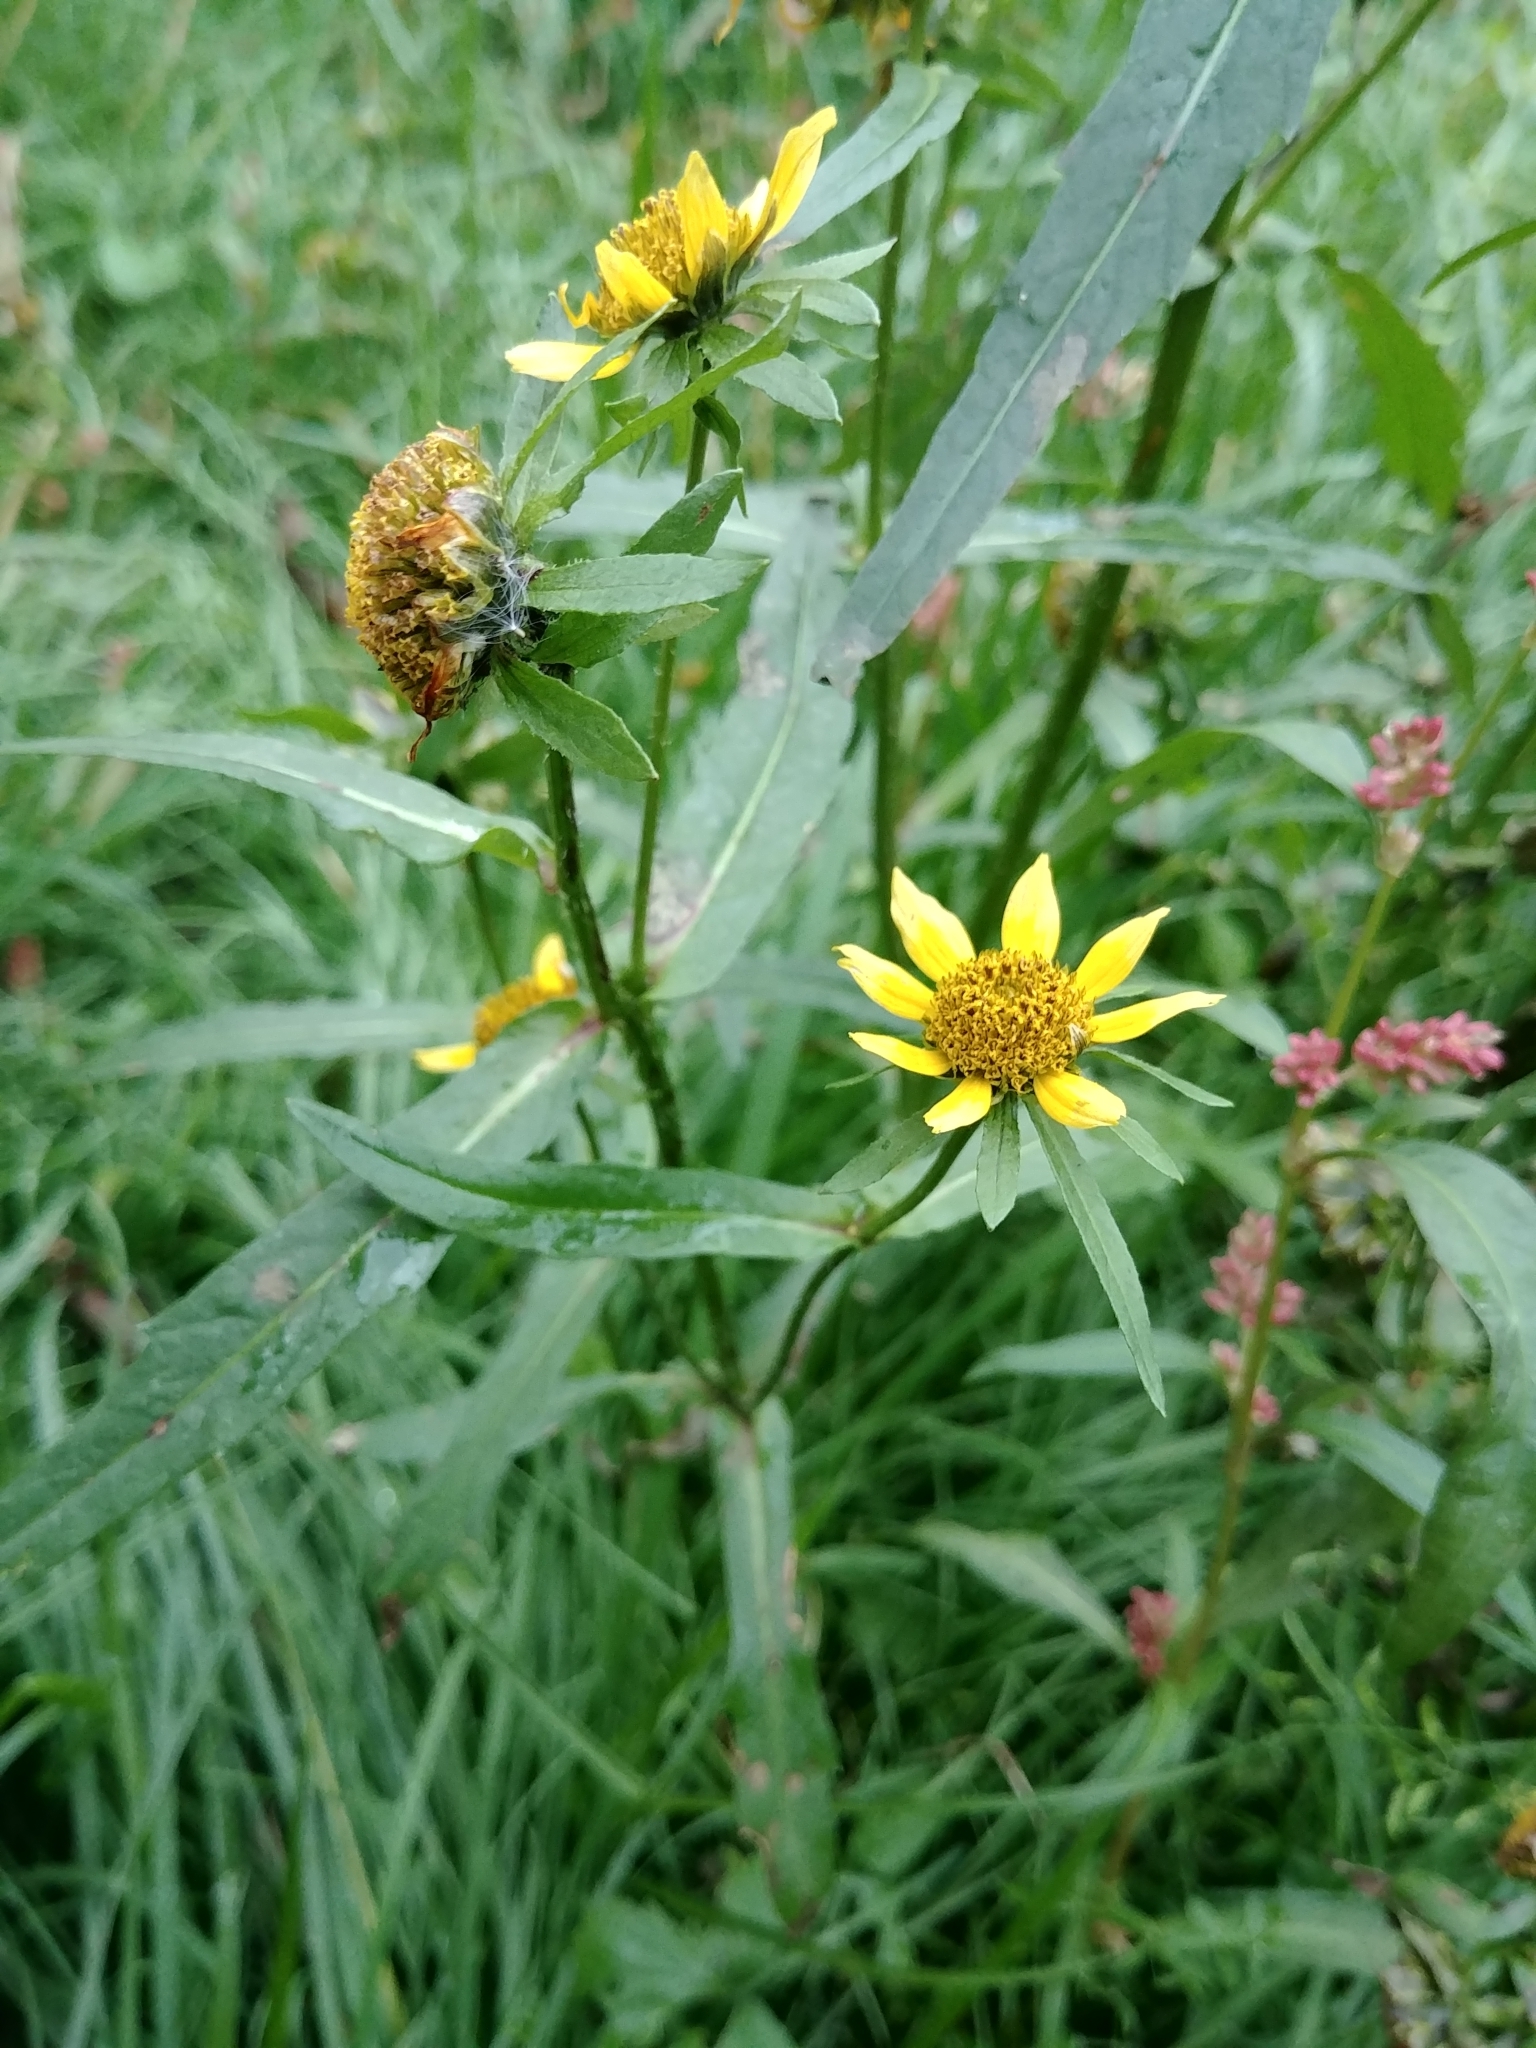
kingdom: Plantae
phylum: Tracheophyta
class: Magnoliopsida
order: Asterales
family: Asteraceae
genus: Bidens
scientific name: Bidens cernua
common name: Nodding bur-marigold
